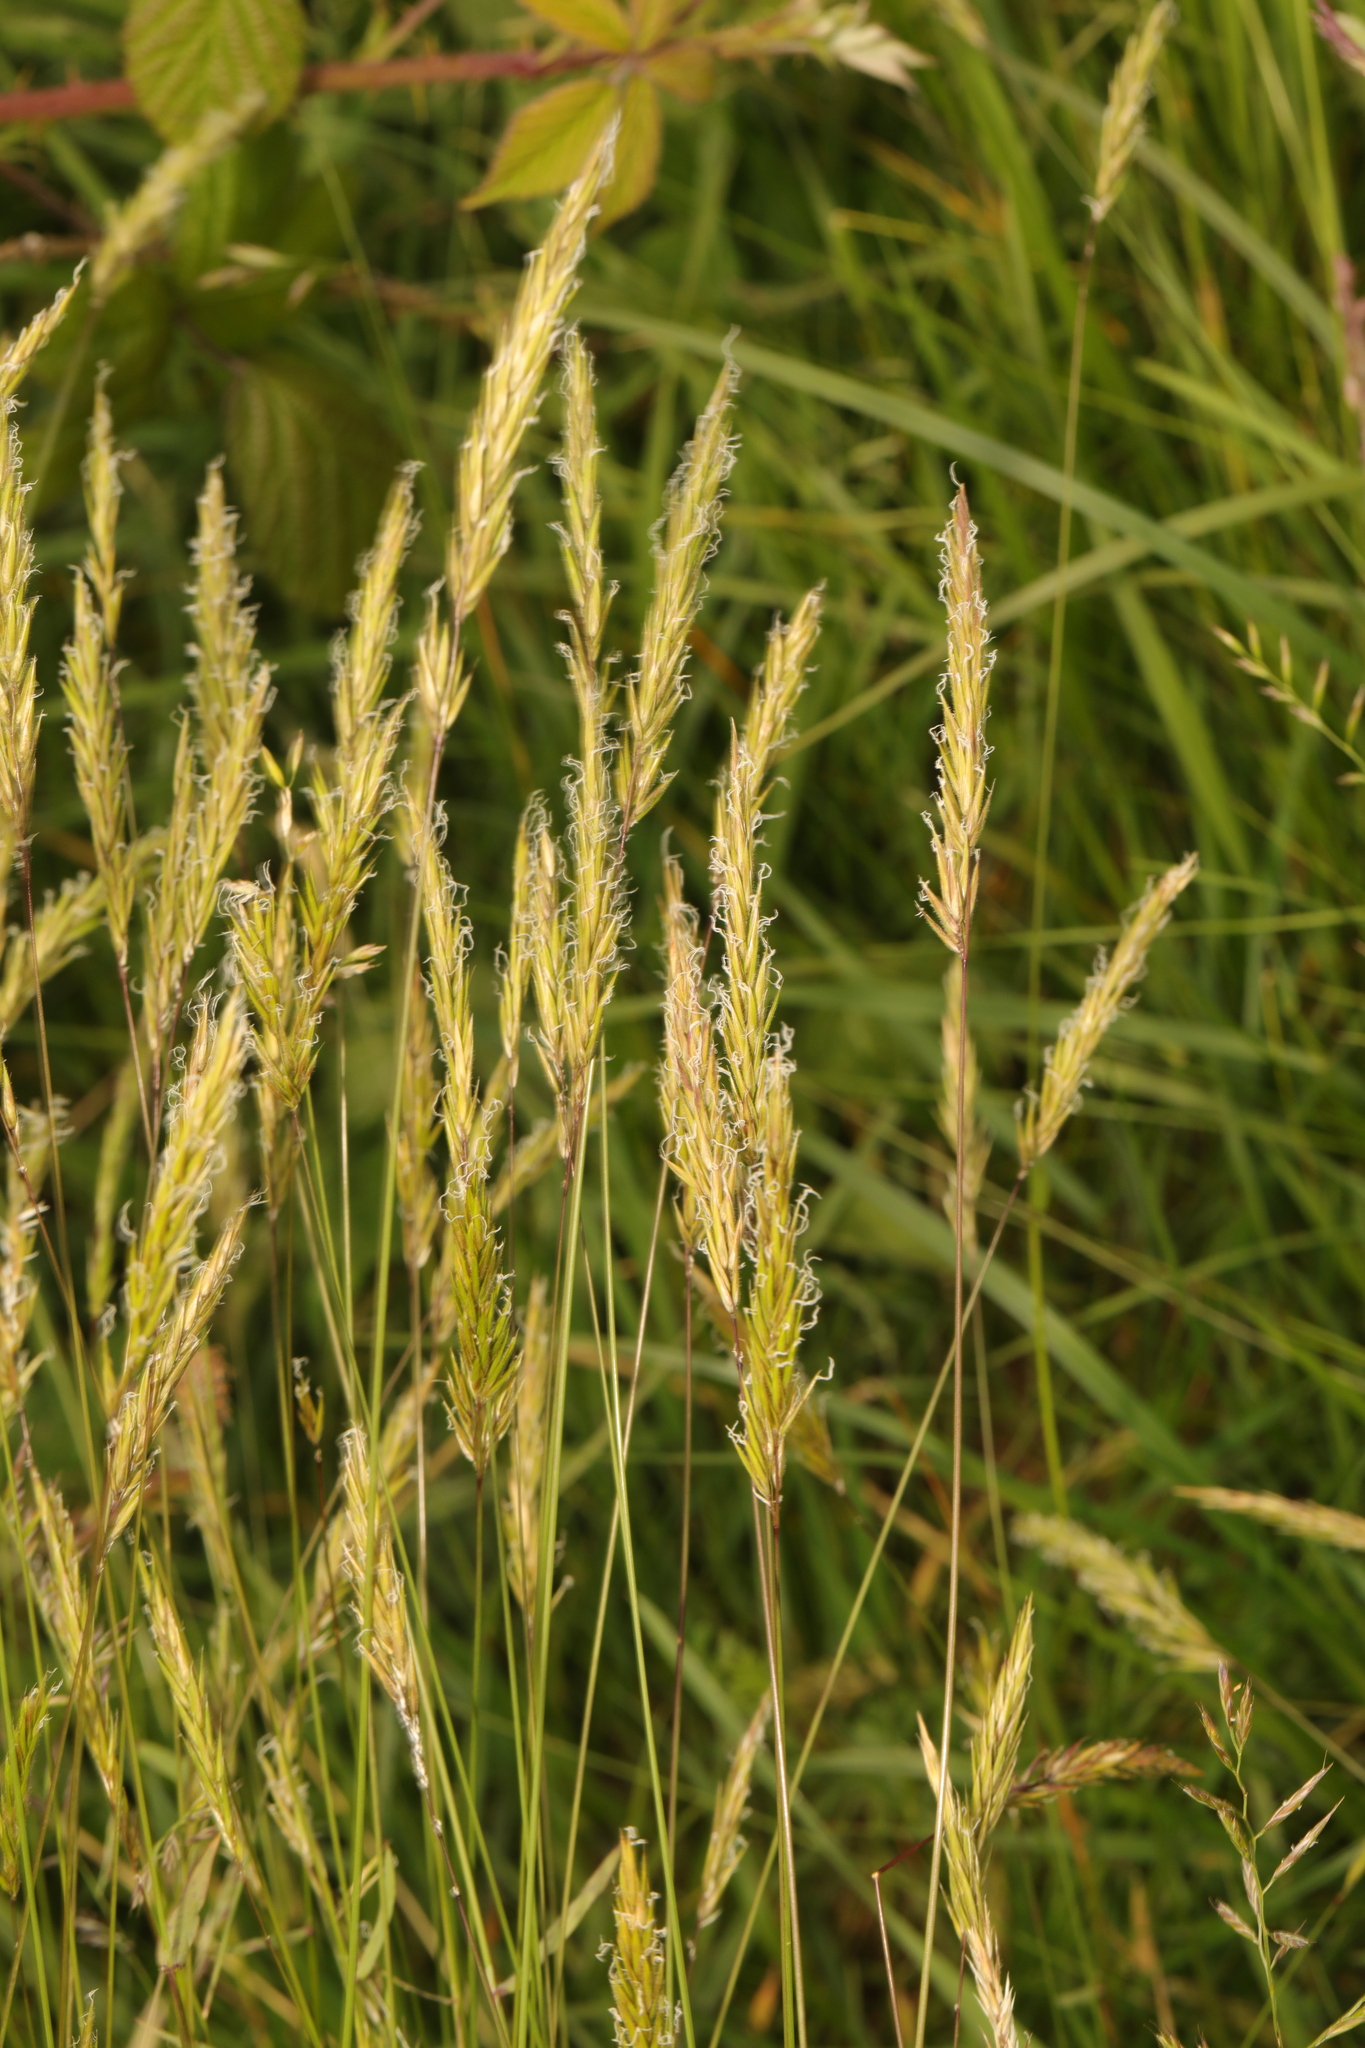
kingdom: Plantae
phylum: Tracheophyta
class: Liliopsida
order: Poales
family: Poaceae
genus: Anthoxanthum
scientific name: Anthoxanthum odoratum
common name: Sweet vernalgrass
